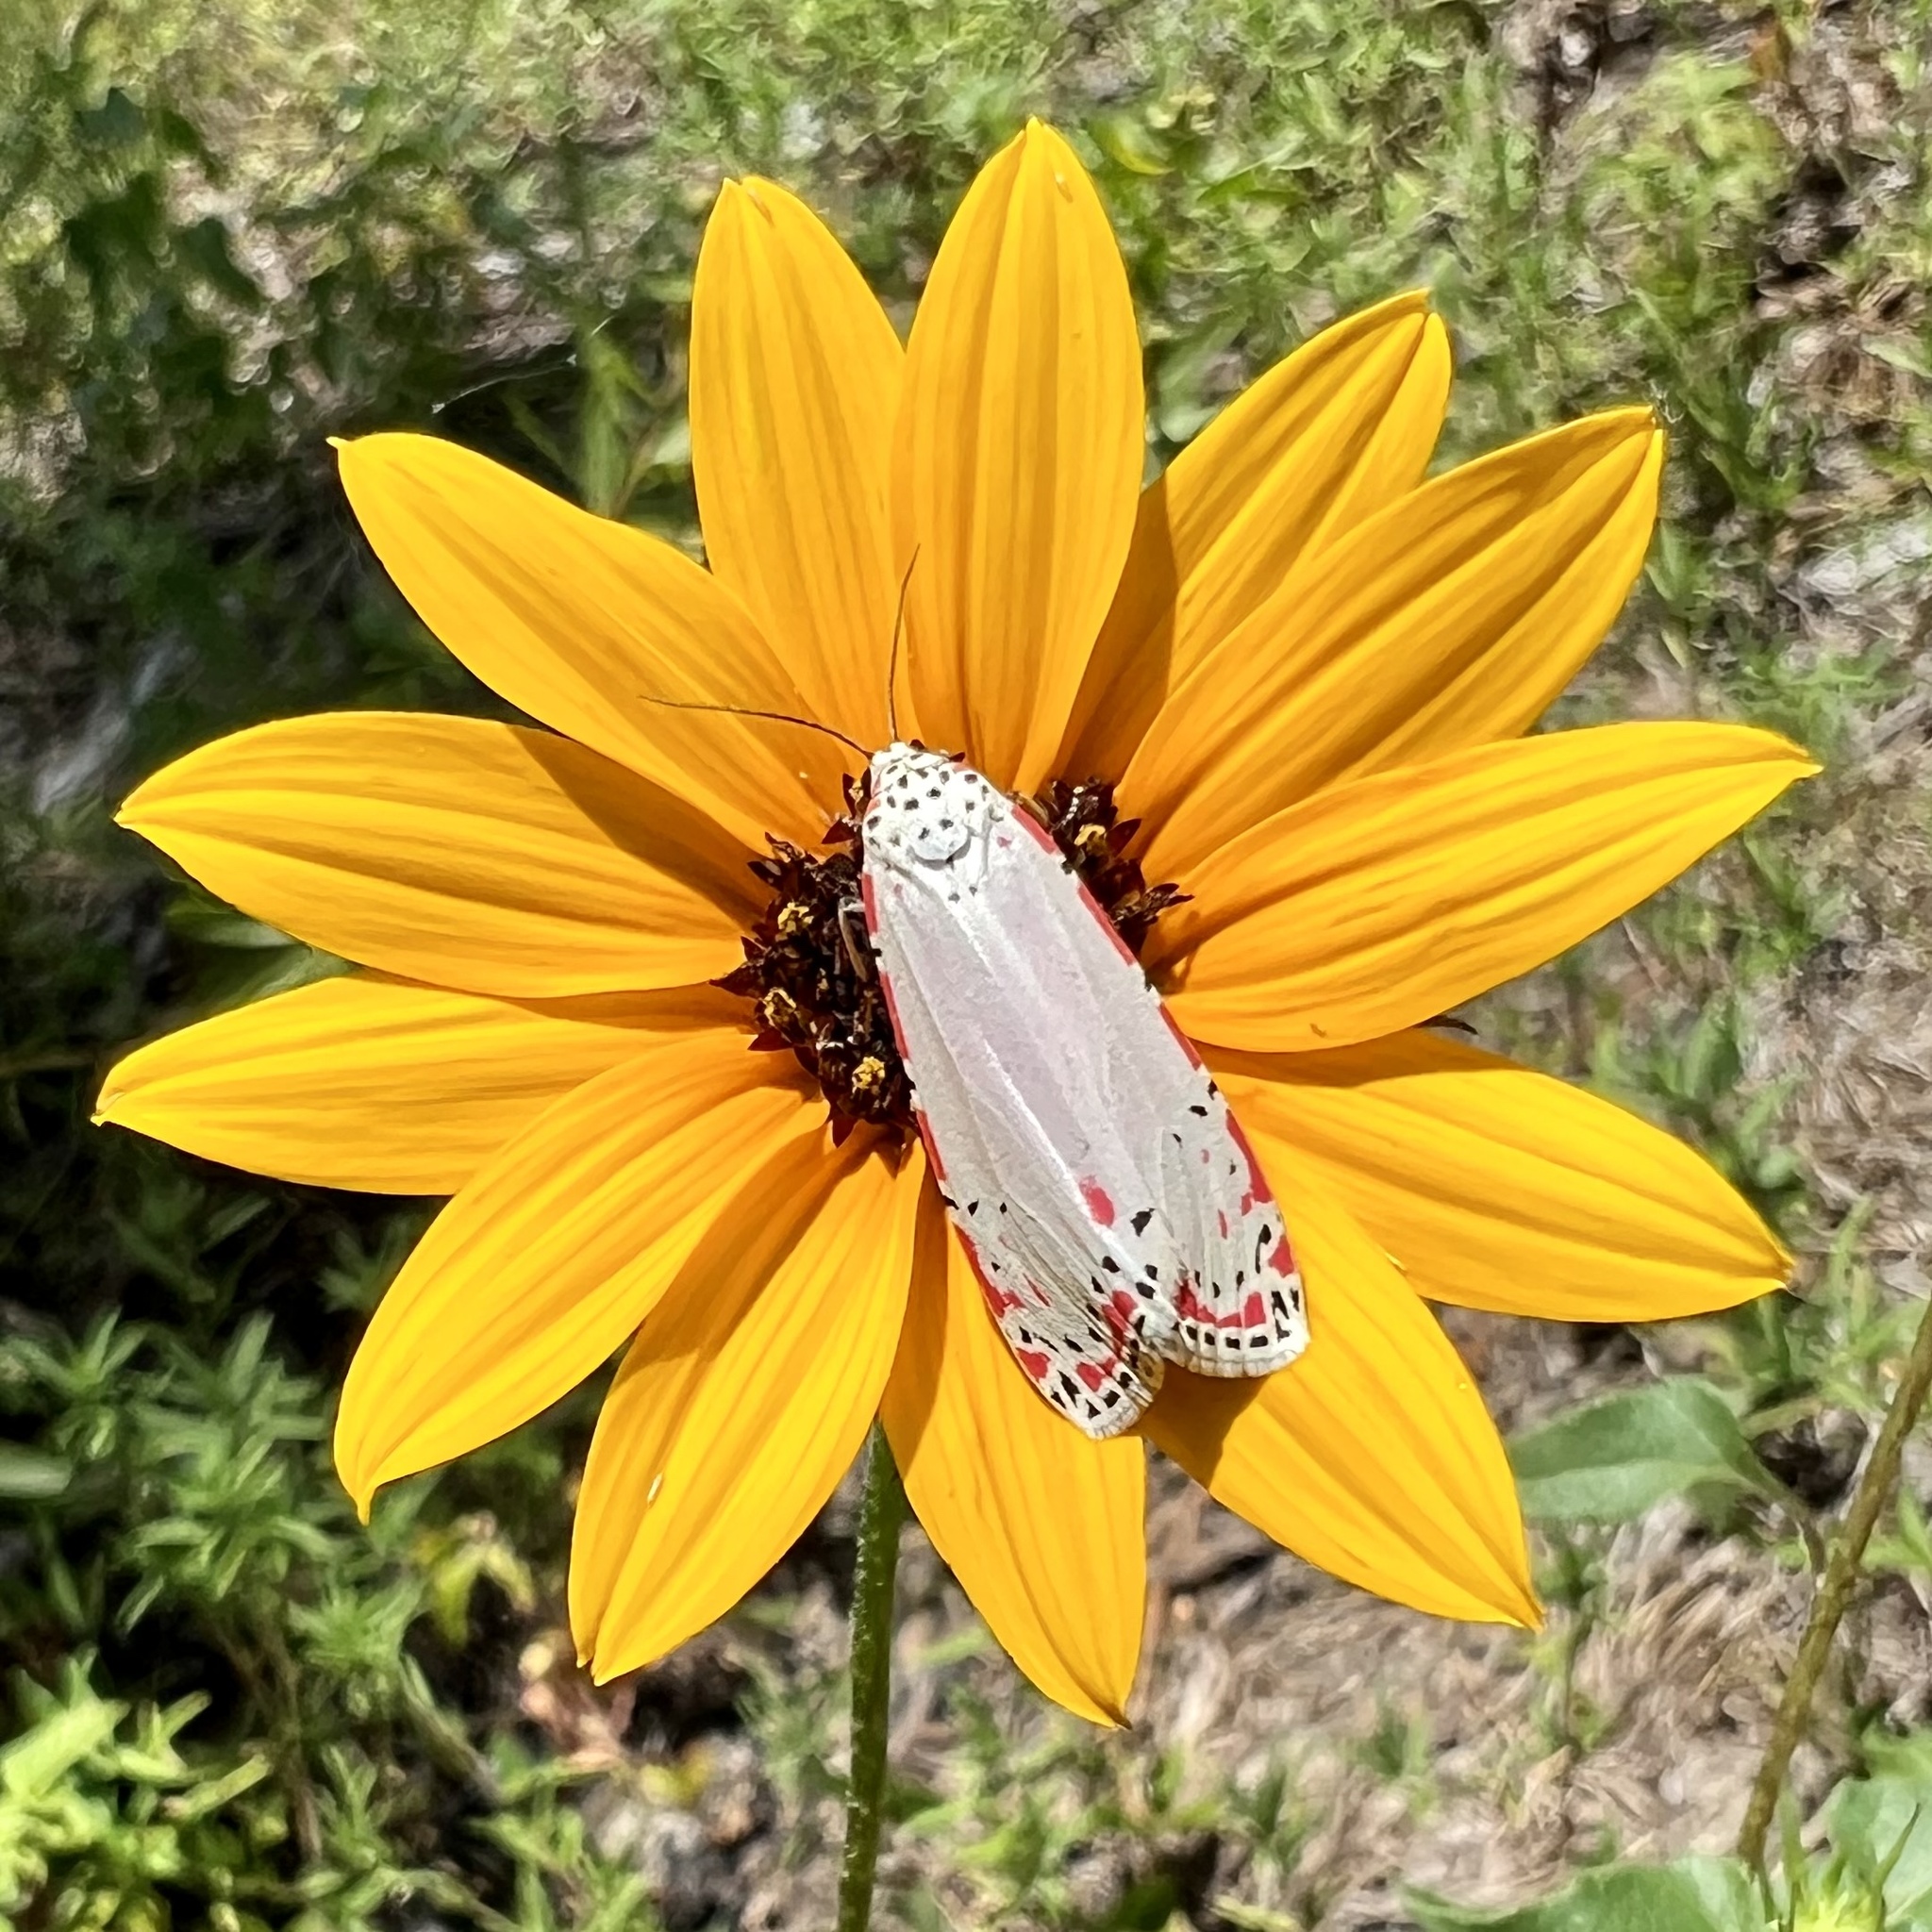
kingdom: Animalia
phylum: Arthropoda
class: Insecta
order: Lepidoptera
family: Erebidae
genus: Utetheisa
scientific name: Utetheisa ornatrix
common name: Beautiful utetheisa
